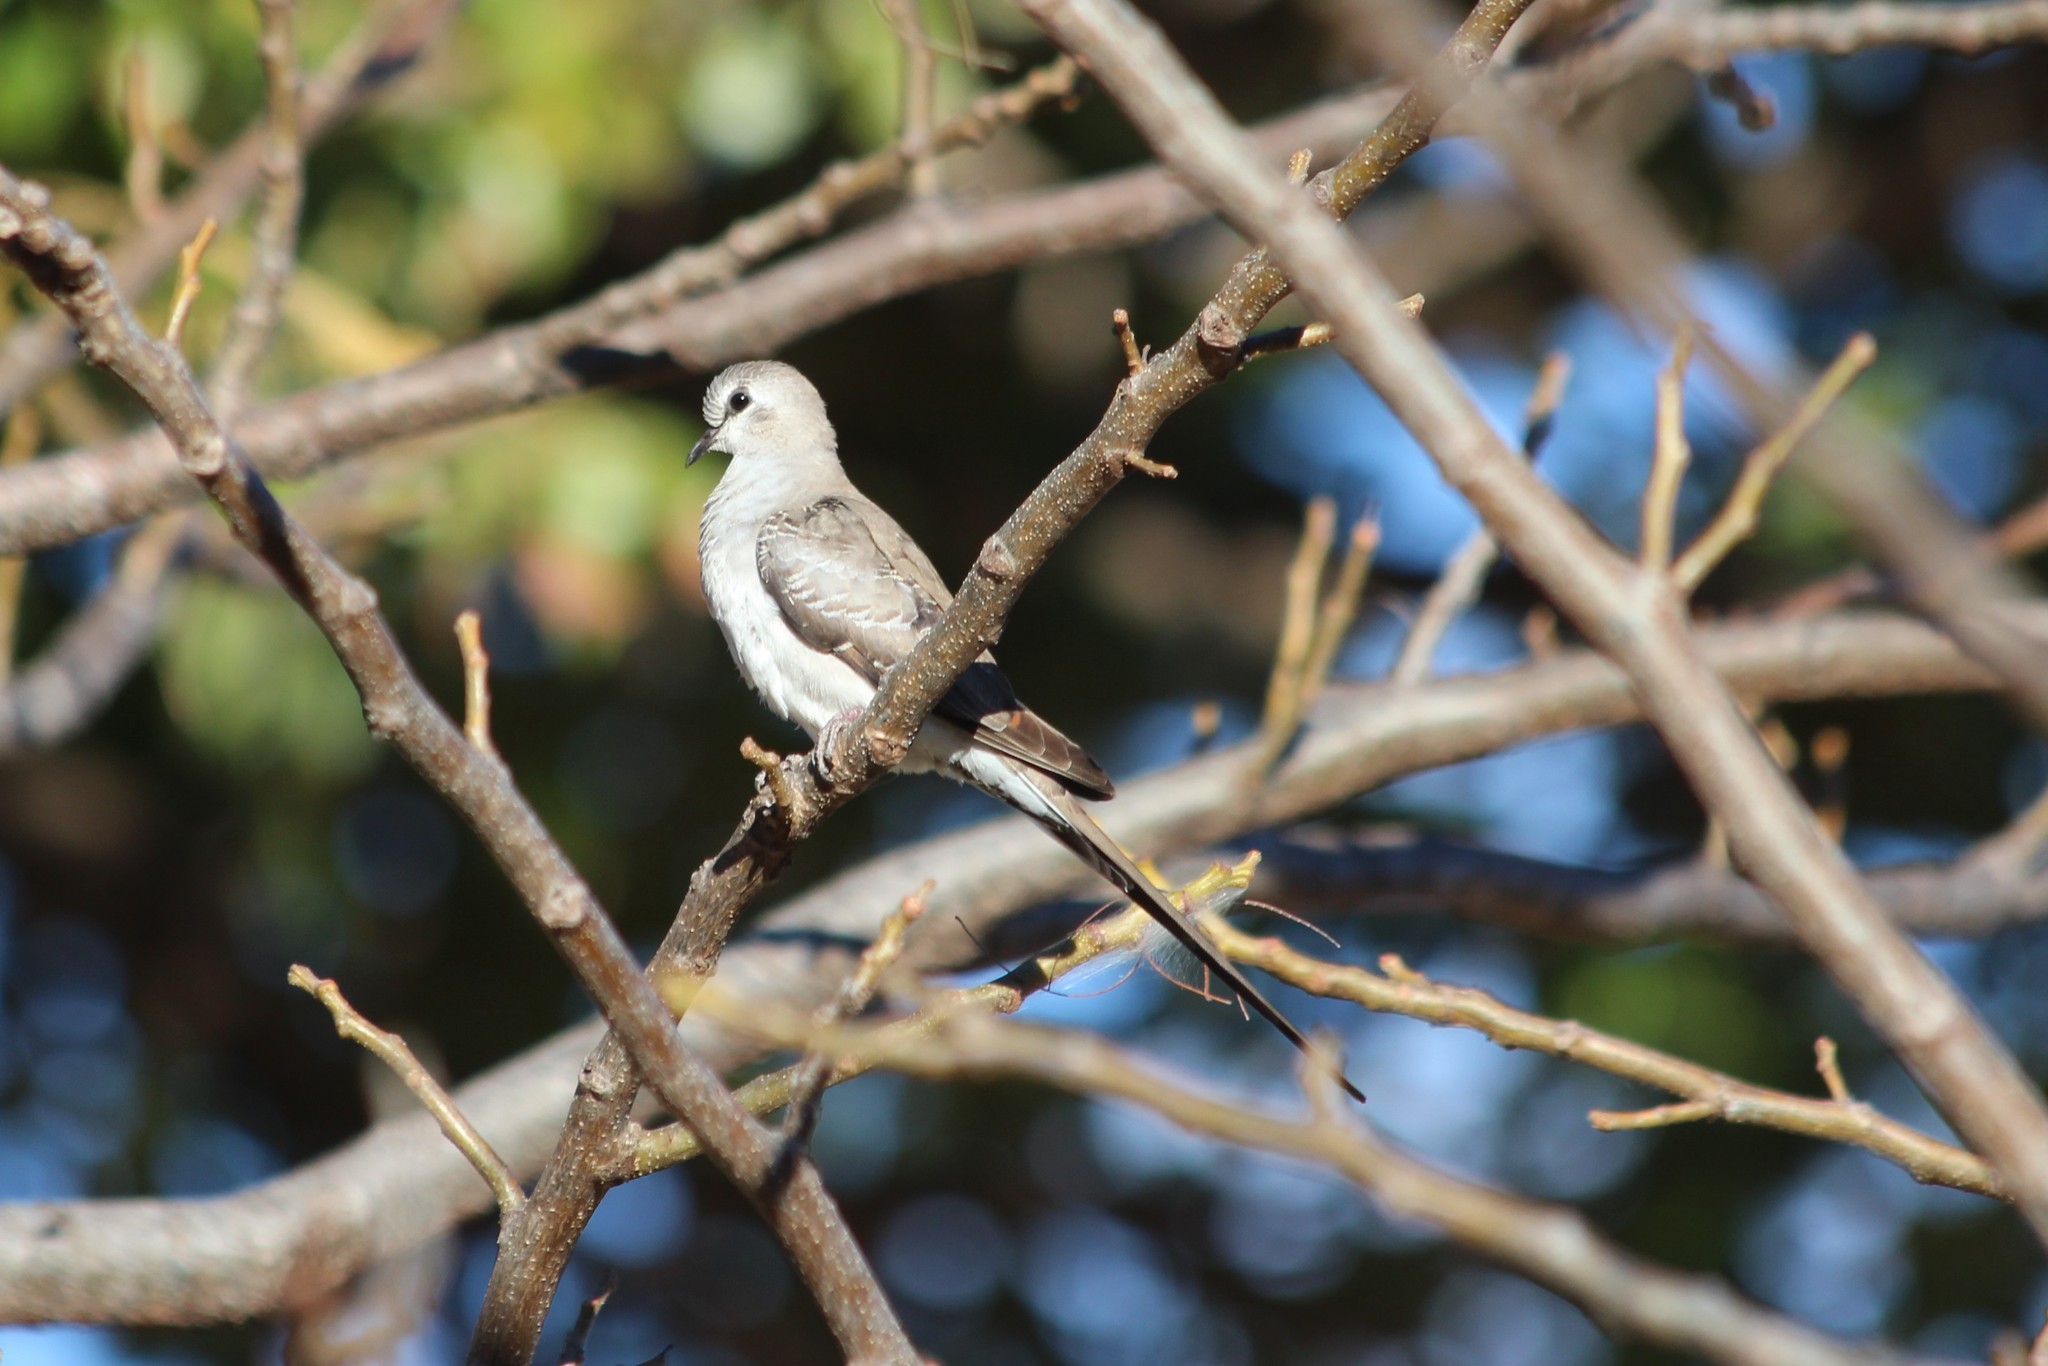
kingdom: Animalia
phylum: Chordata
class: Aves
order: Columbiformes
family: Columbidae
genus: Oena
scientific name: Oena capensis
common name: Namaqua dove
